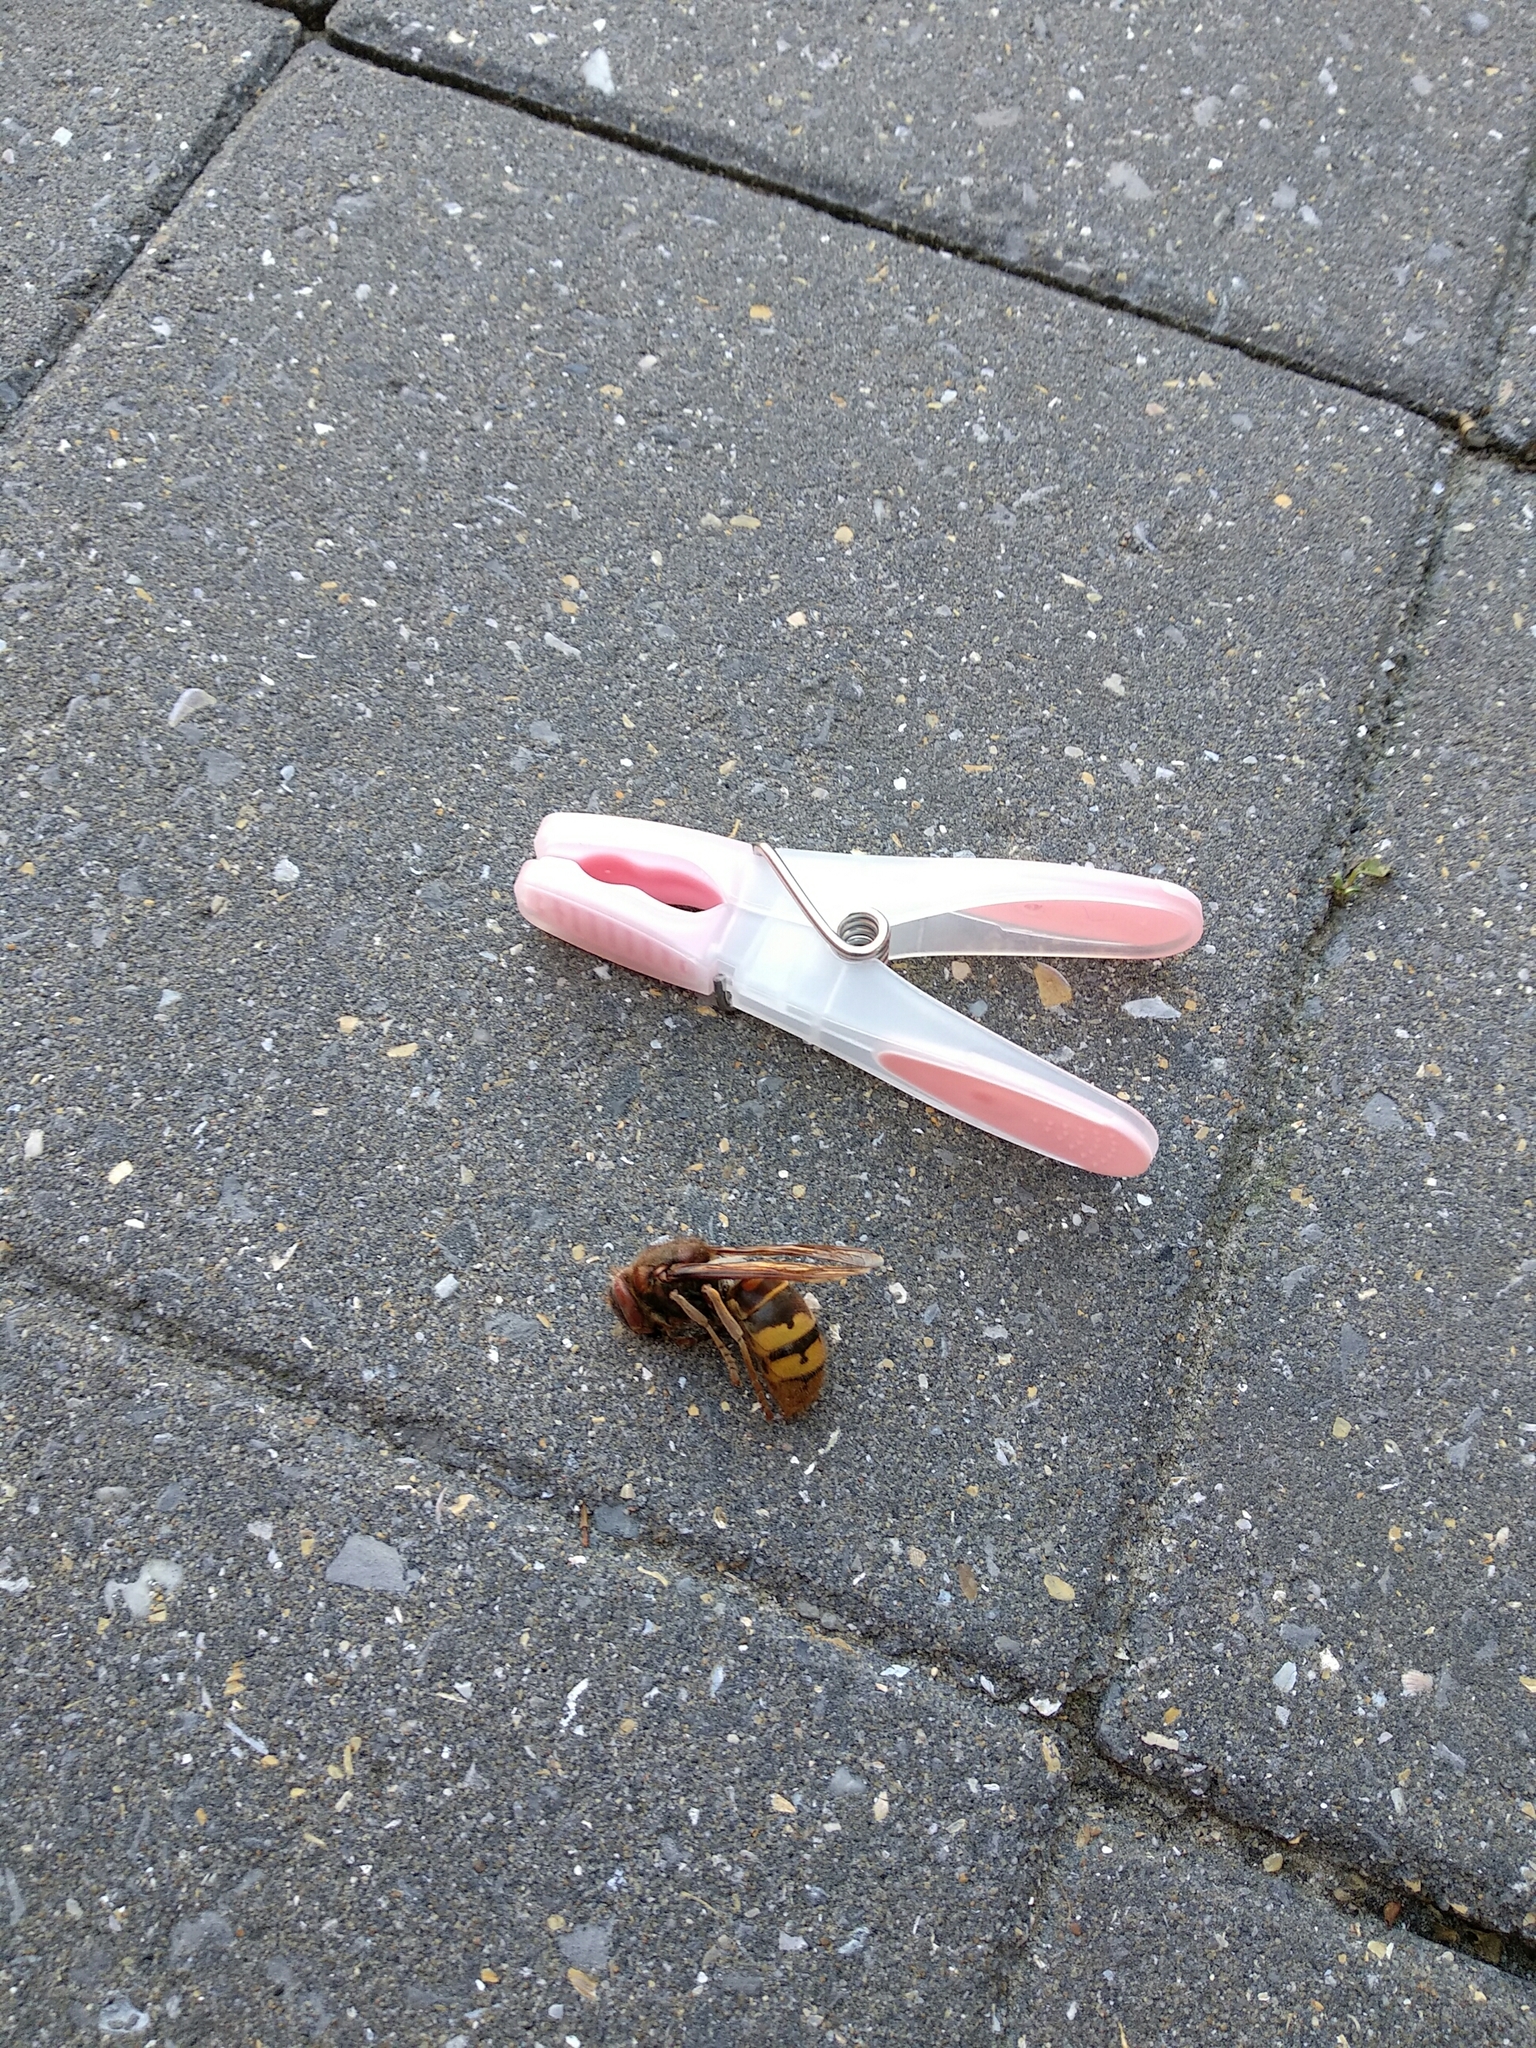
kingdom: Animalia
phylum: Arthropoda
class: Insecta
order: Hymenoptera
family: Vespidae
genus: Vespa
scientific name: Vespa crabro
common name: Hornet
